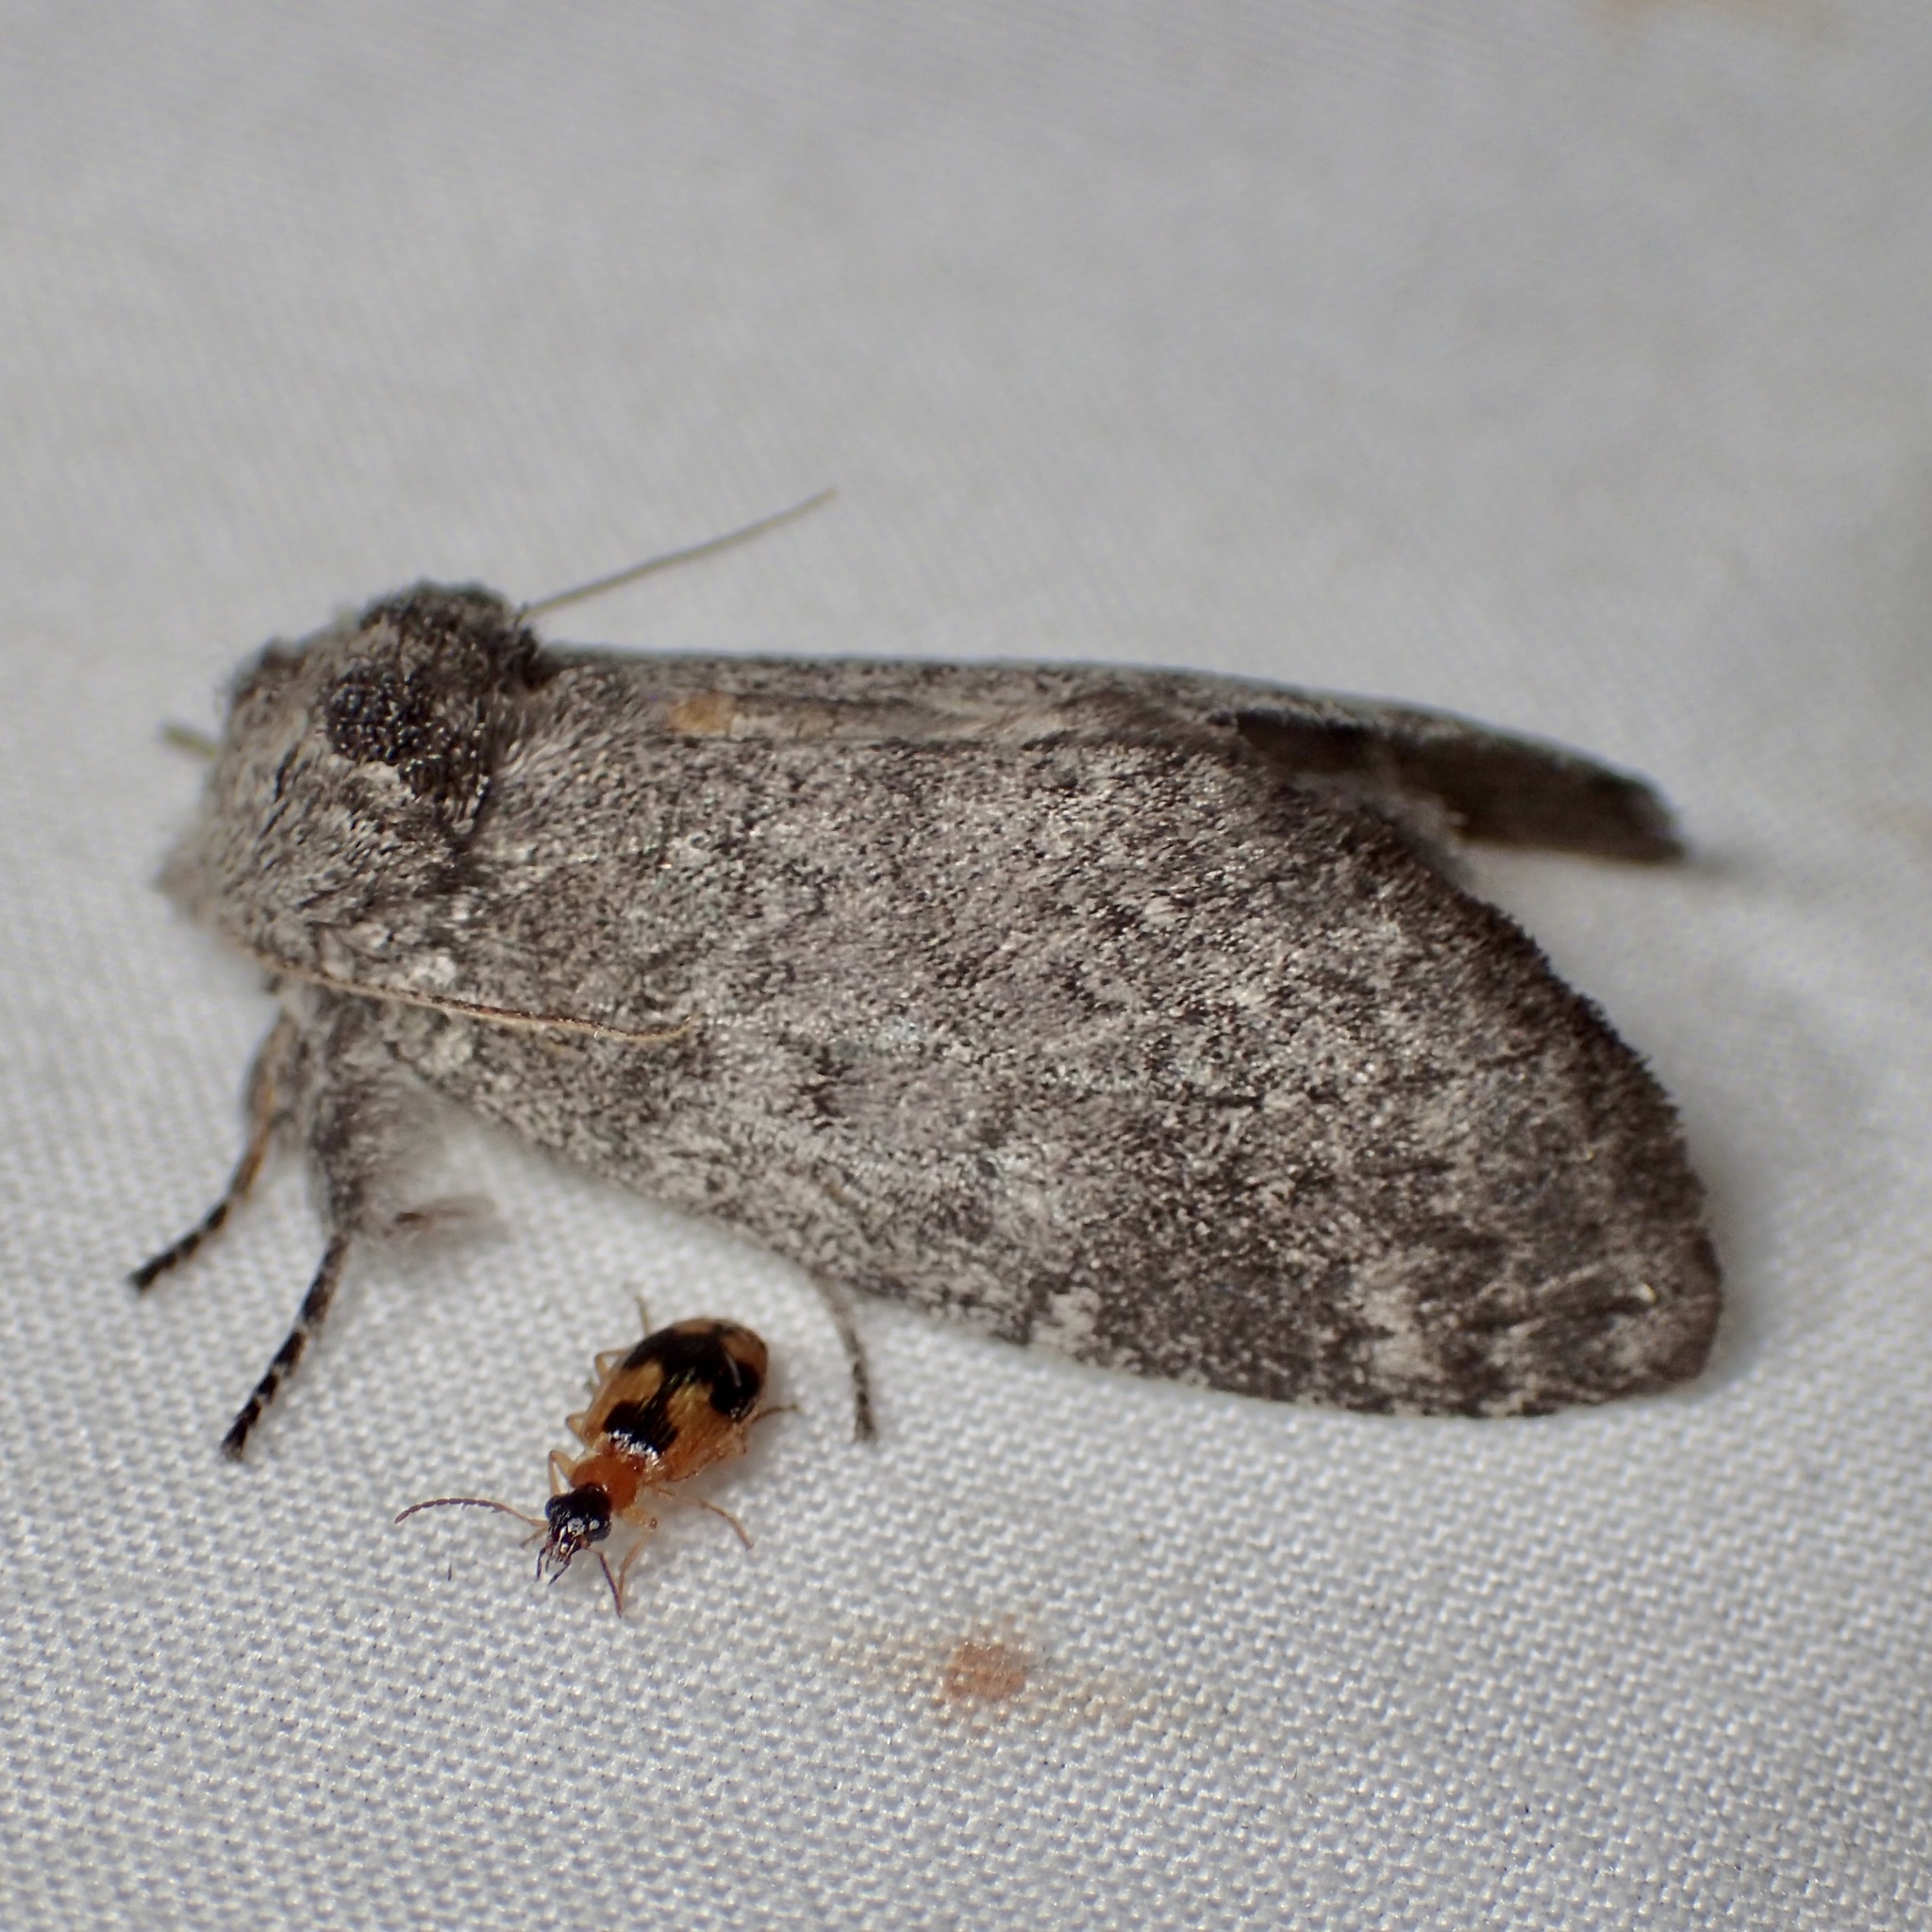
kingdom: Animalia
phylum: Arthropoda
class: Insecta
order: Lepidoptera
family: Notodontidae
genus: Macrurocampa
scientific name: Macrurocampa
